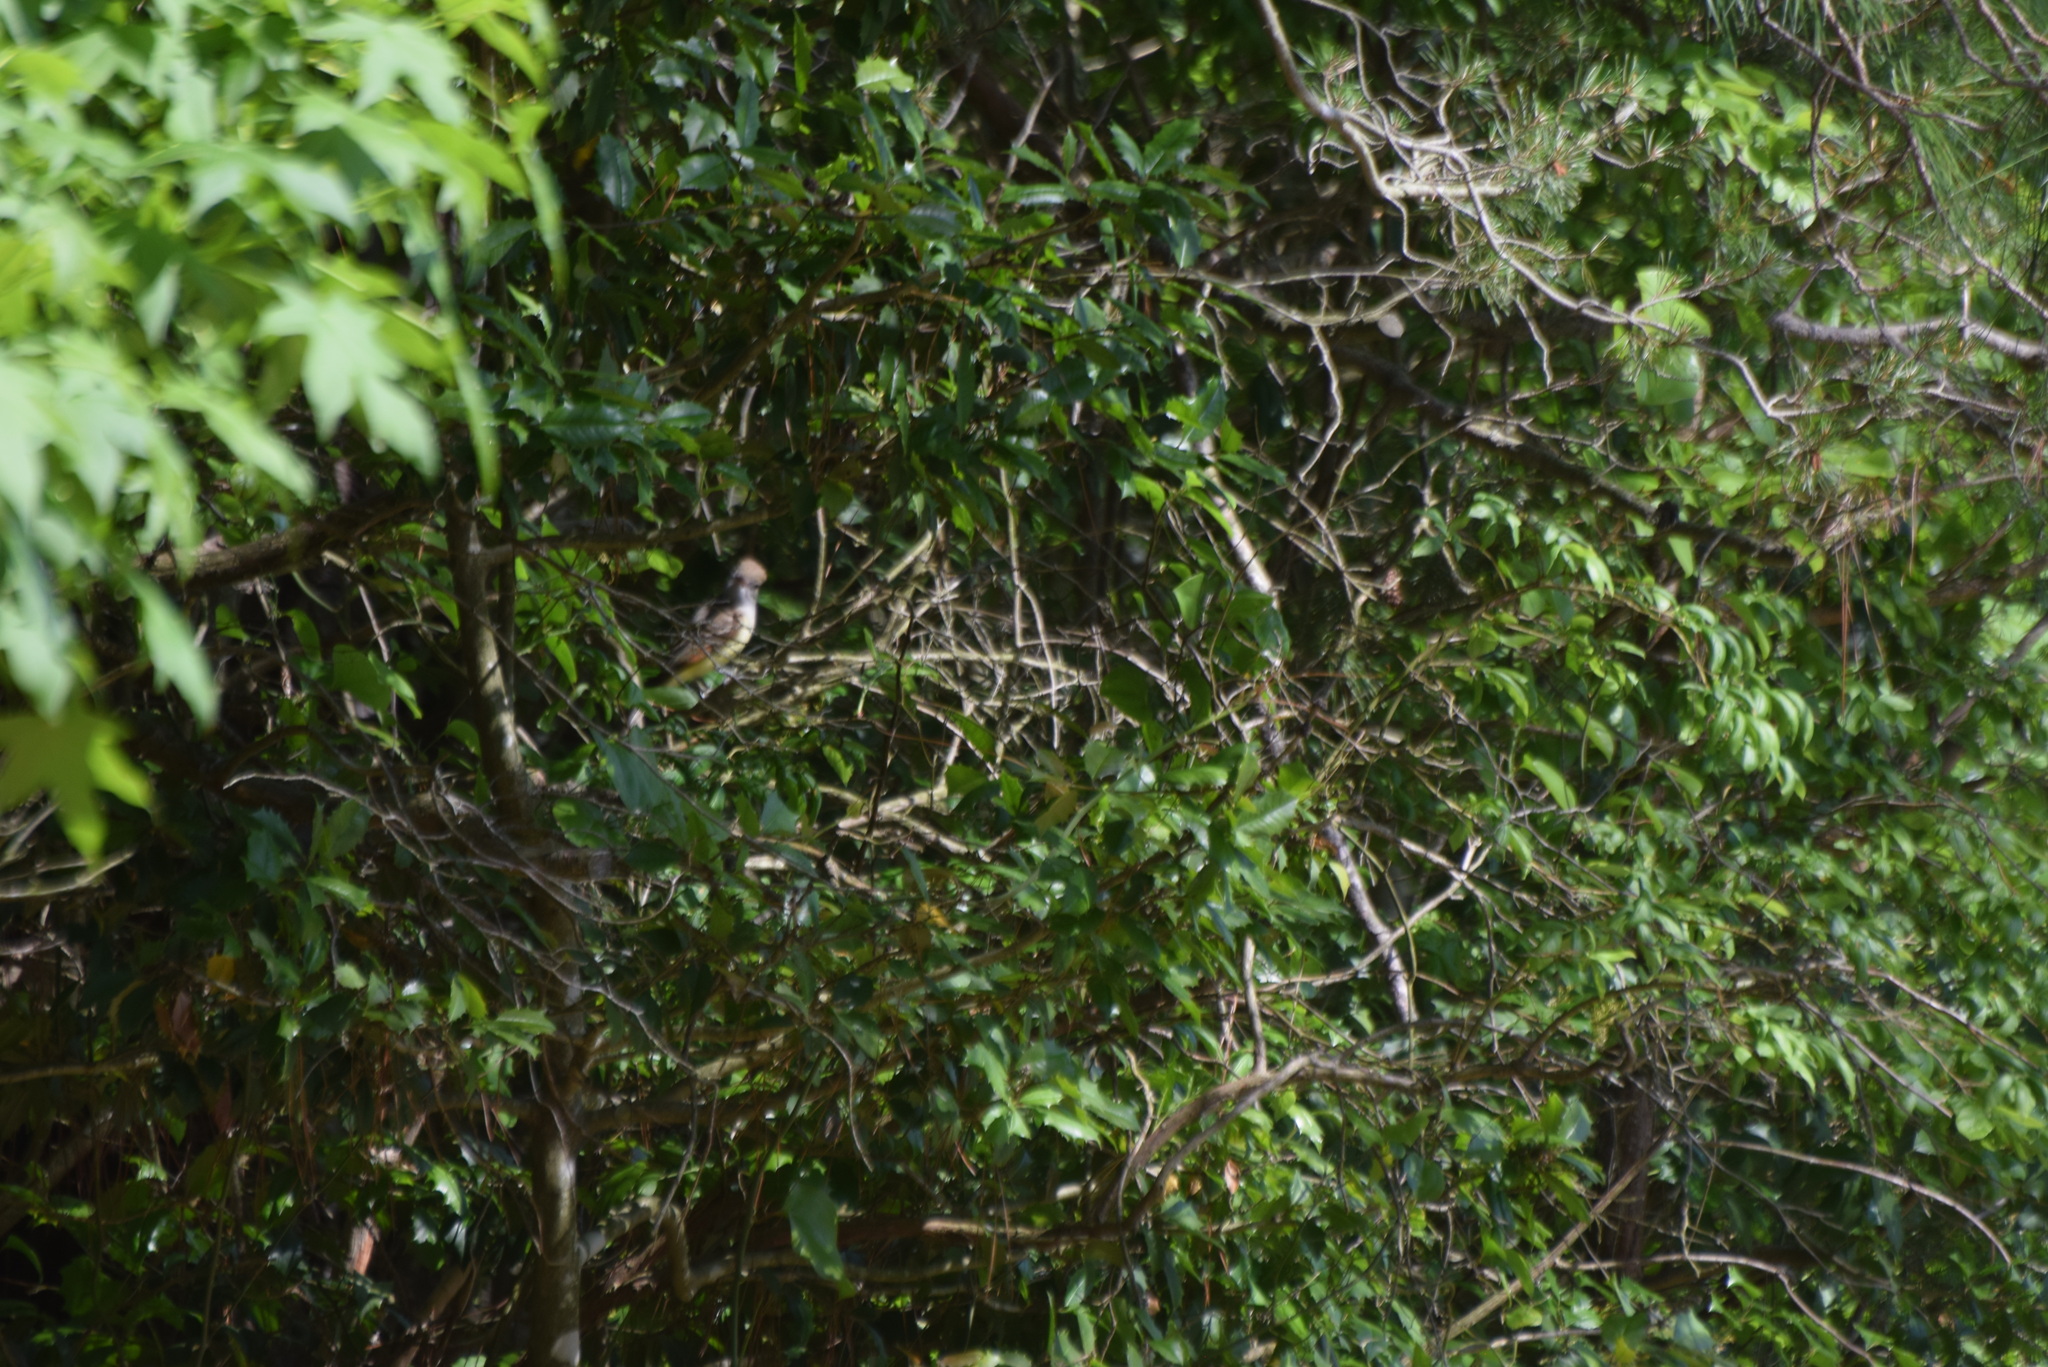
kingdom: Animalia
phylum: Chordata
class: Aves
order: Passeriformes
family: Tyrannidae
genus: Myiarchus
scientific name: Myiarchus crinitus
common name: Great crested flycatcher
